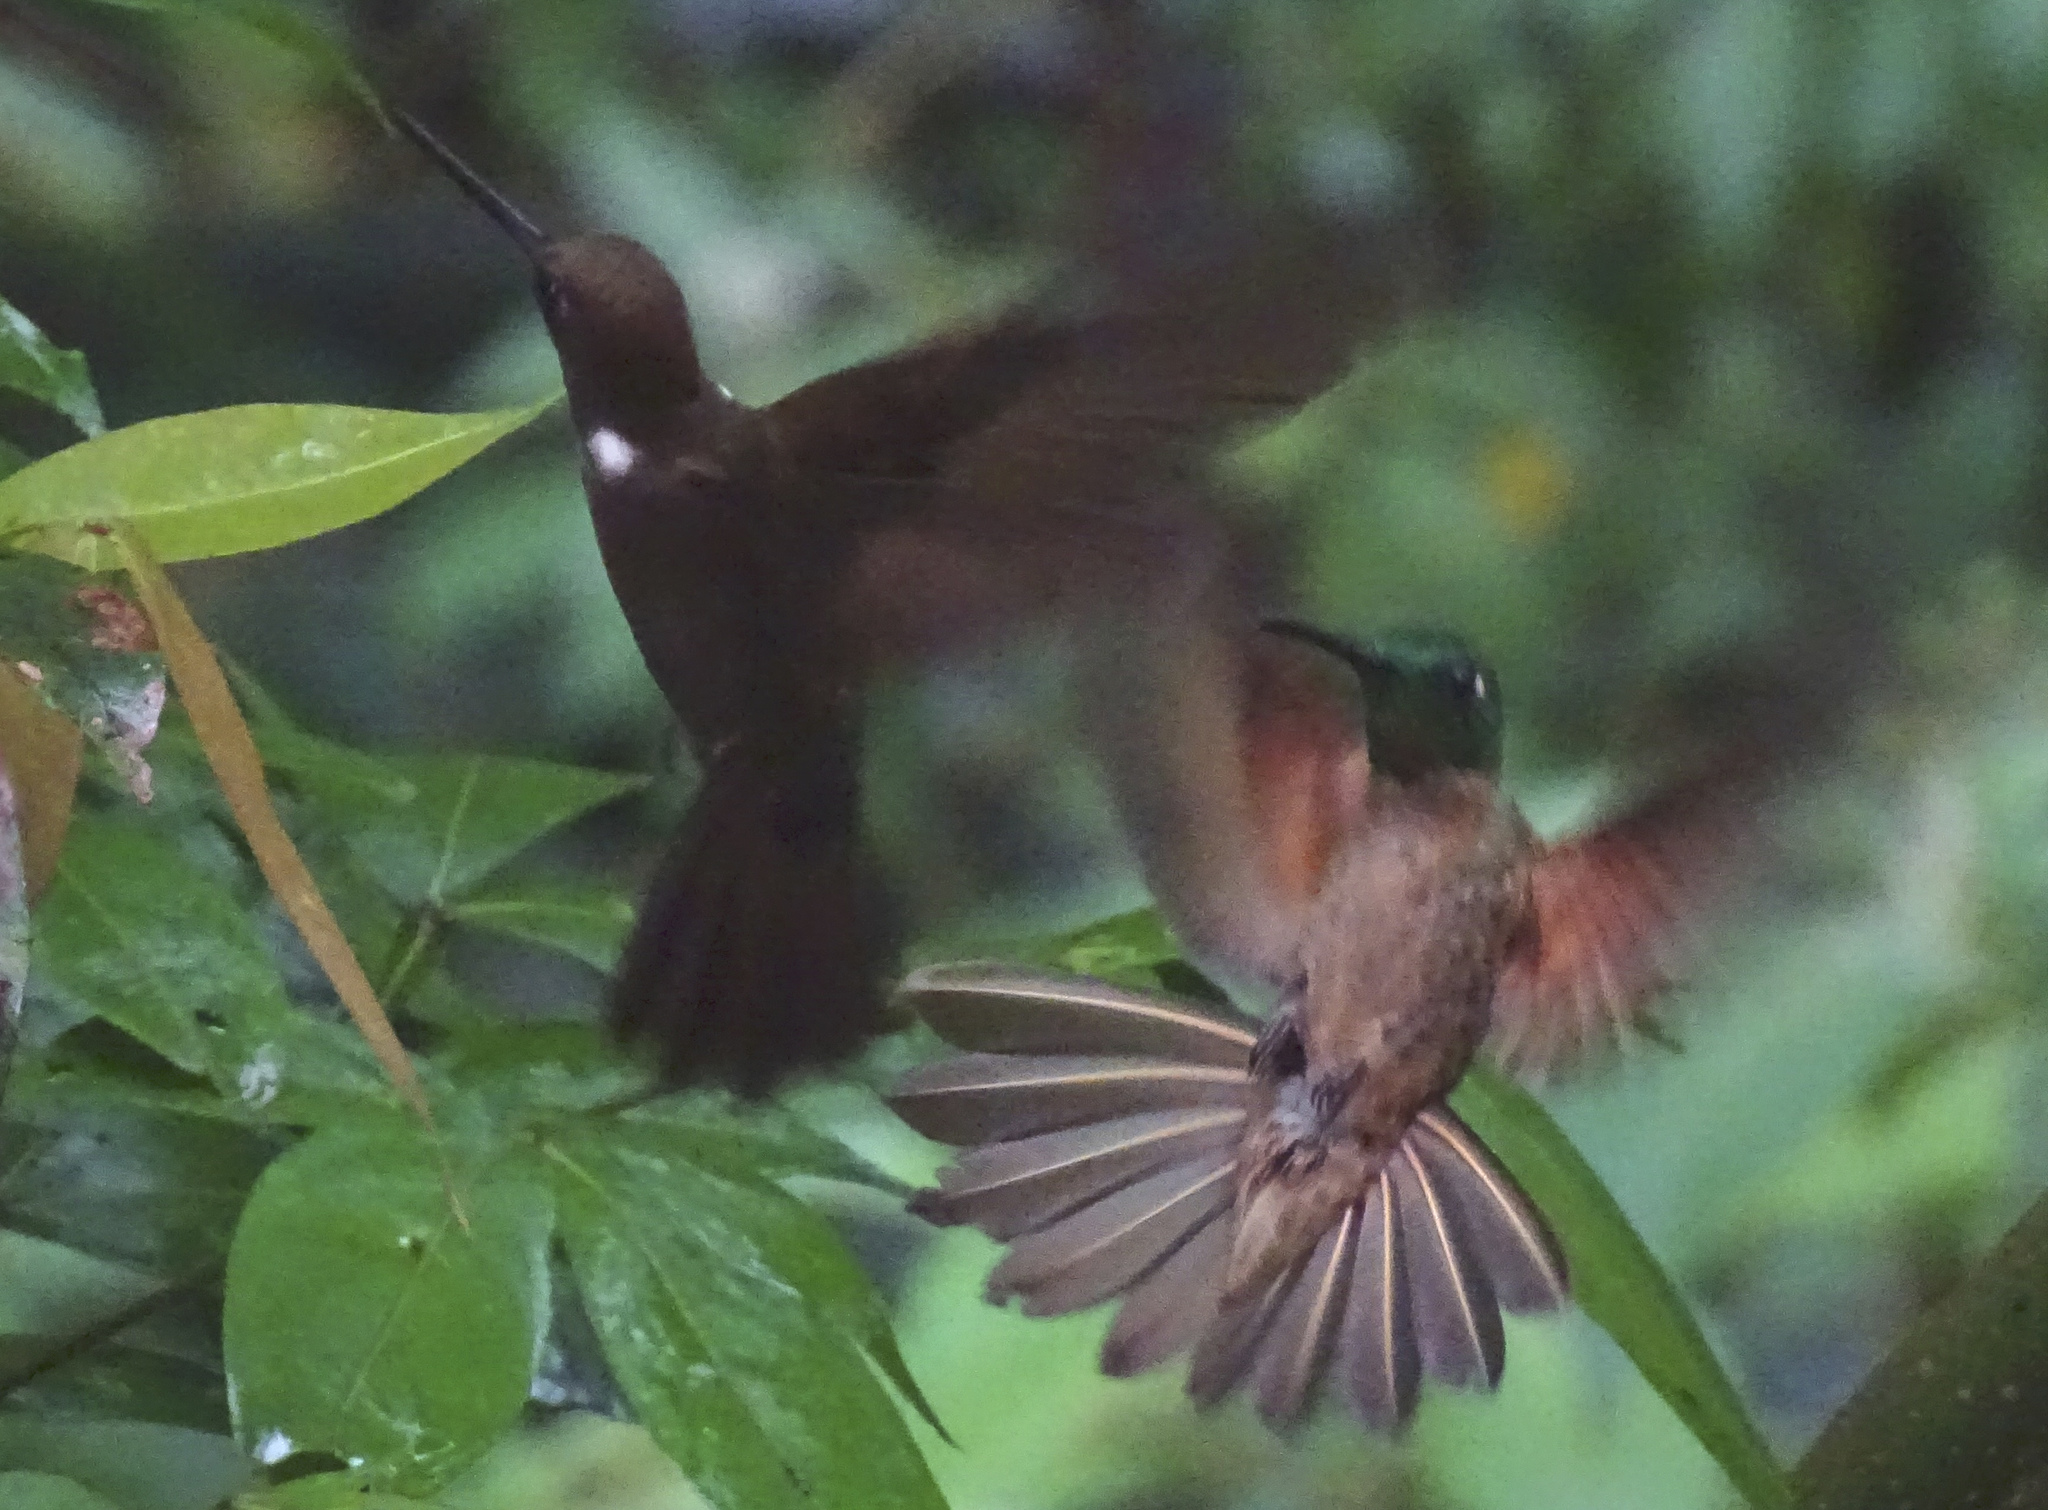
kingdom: Animalia
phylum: Chordata
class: Aves
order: Apodiformes
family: Trochilidae
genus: Heliodoxa
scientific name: Heliodoxa rubinoides
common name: Fawn-breasted brilliant
